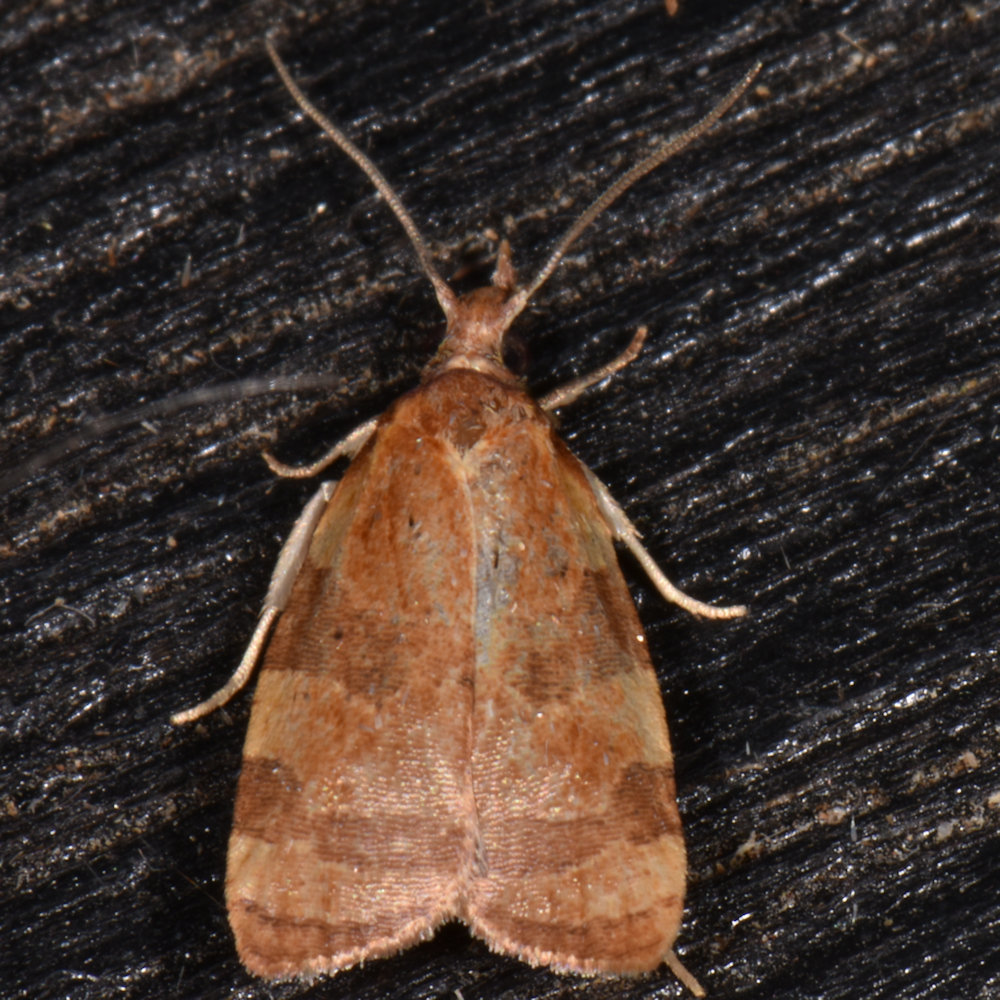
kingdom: Animalia
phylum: Arthropoda
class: Insecta
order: Lepidoptera
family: Tortricidae
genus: Cenopis
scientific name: Cenopis diluticostana
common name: Spring dead-leaf roller moth
